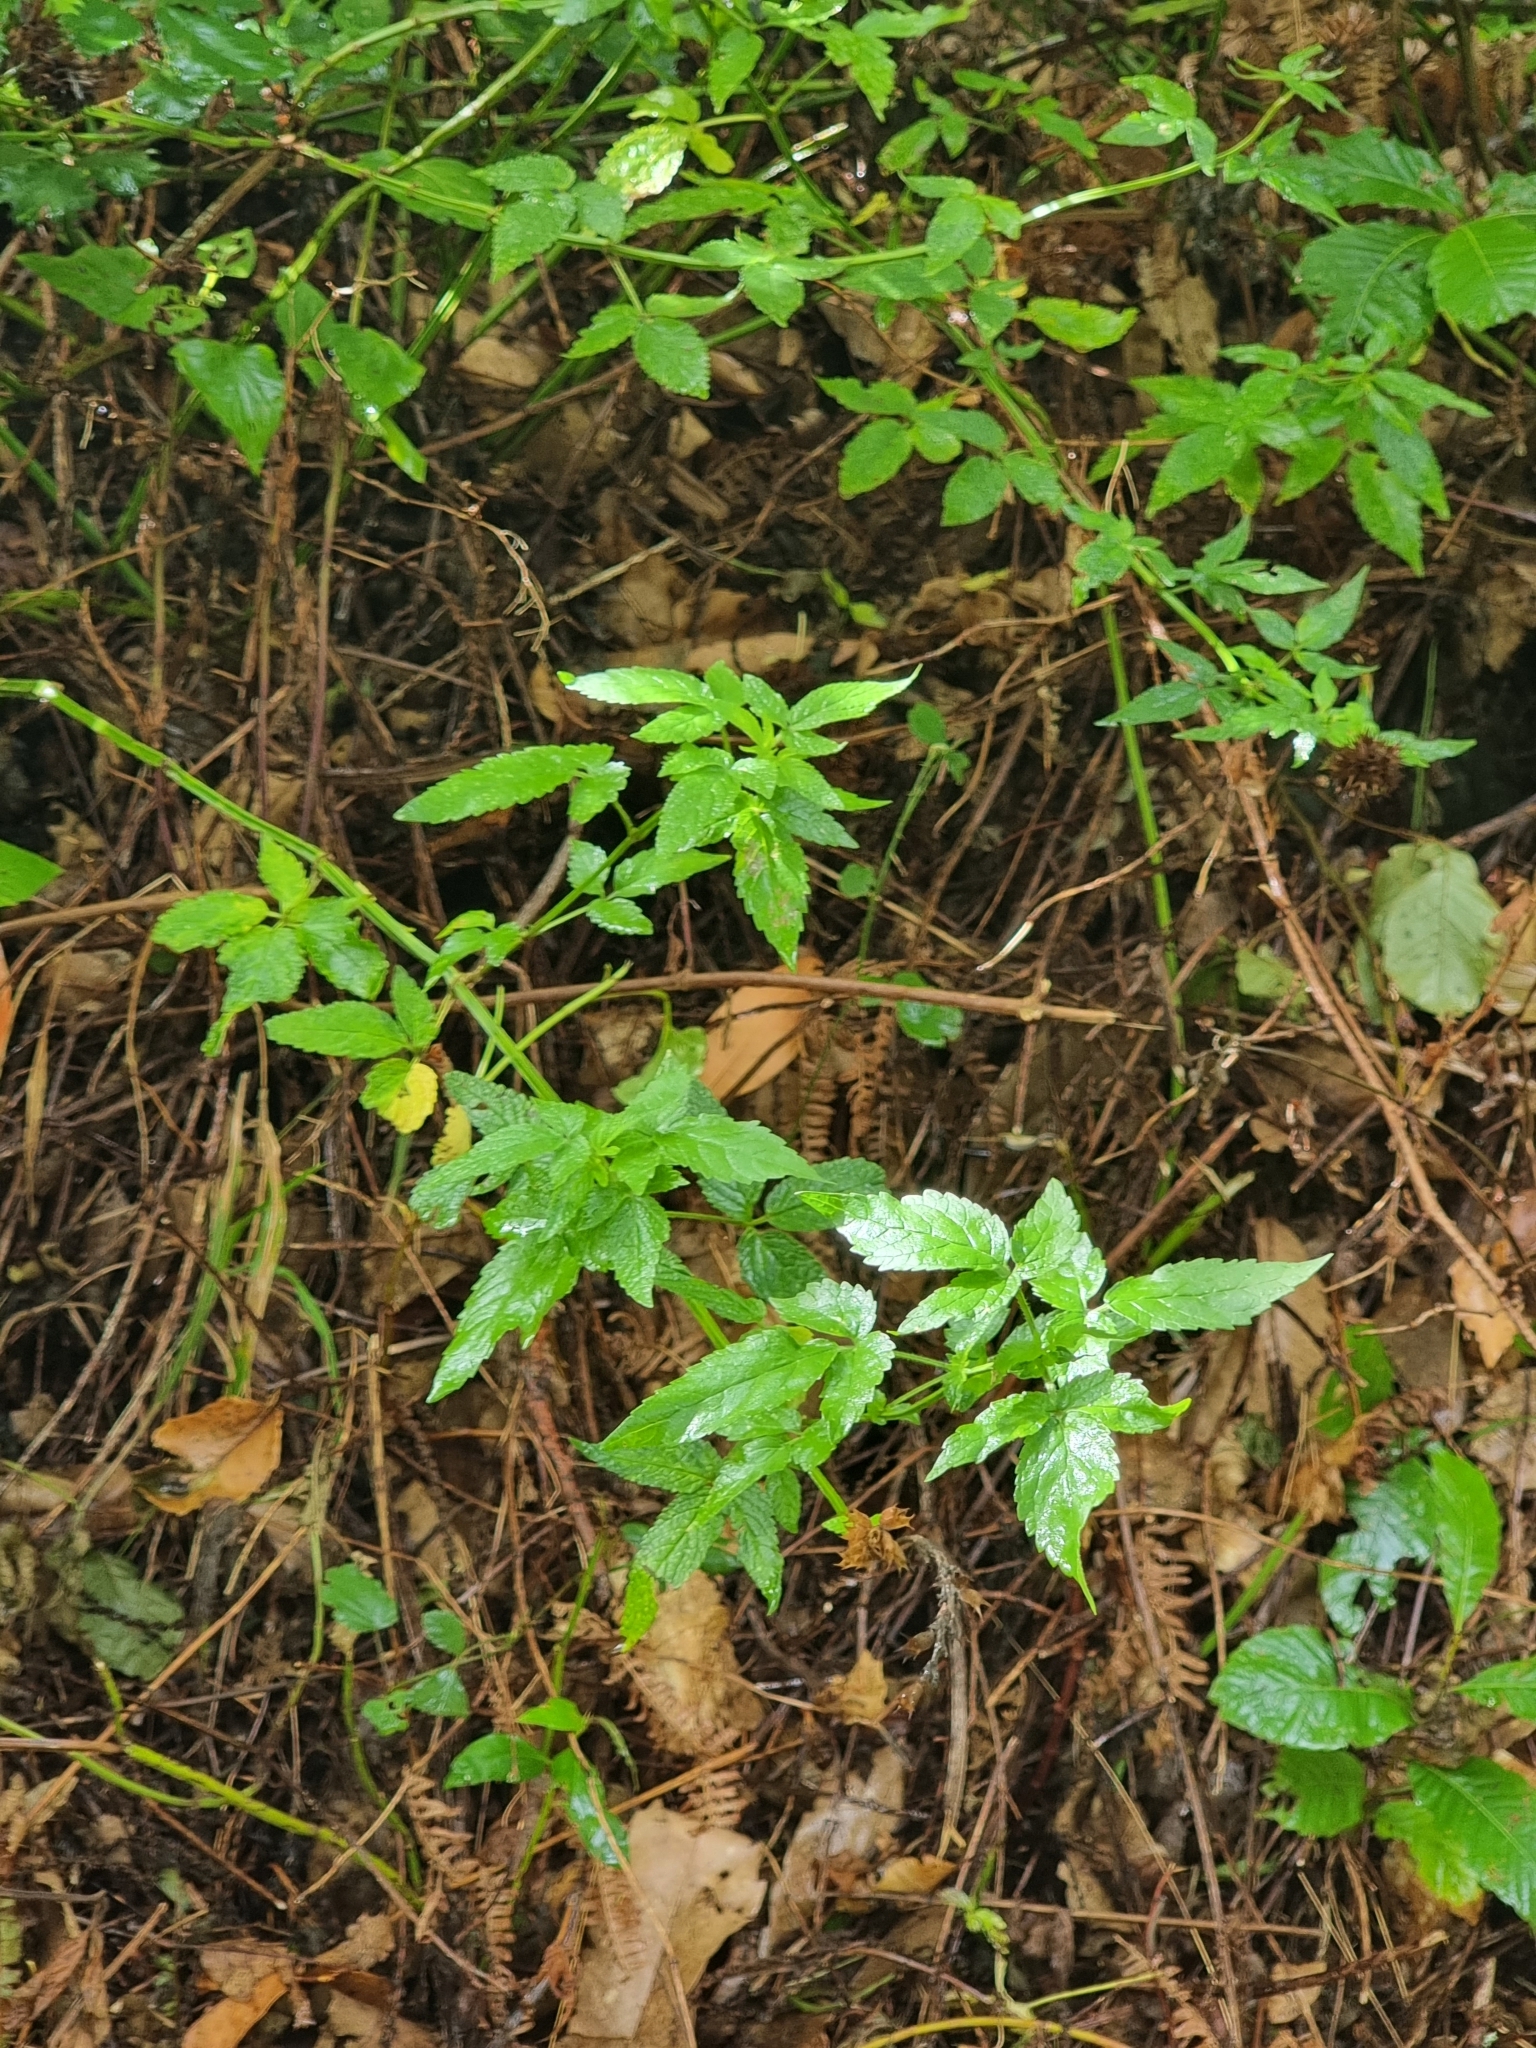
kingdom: Plantae
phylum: Tracheophyta
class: Magnoliopsida
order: Lamiales
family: Lamiaceae
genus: Cedronella
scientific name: Cedronella canariensis
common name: Canary islands balm
